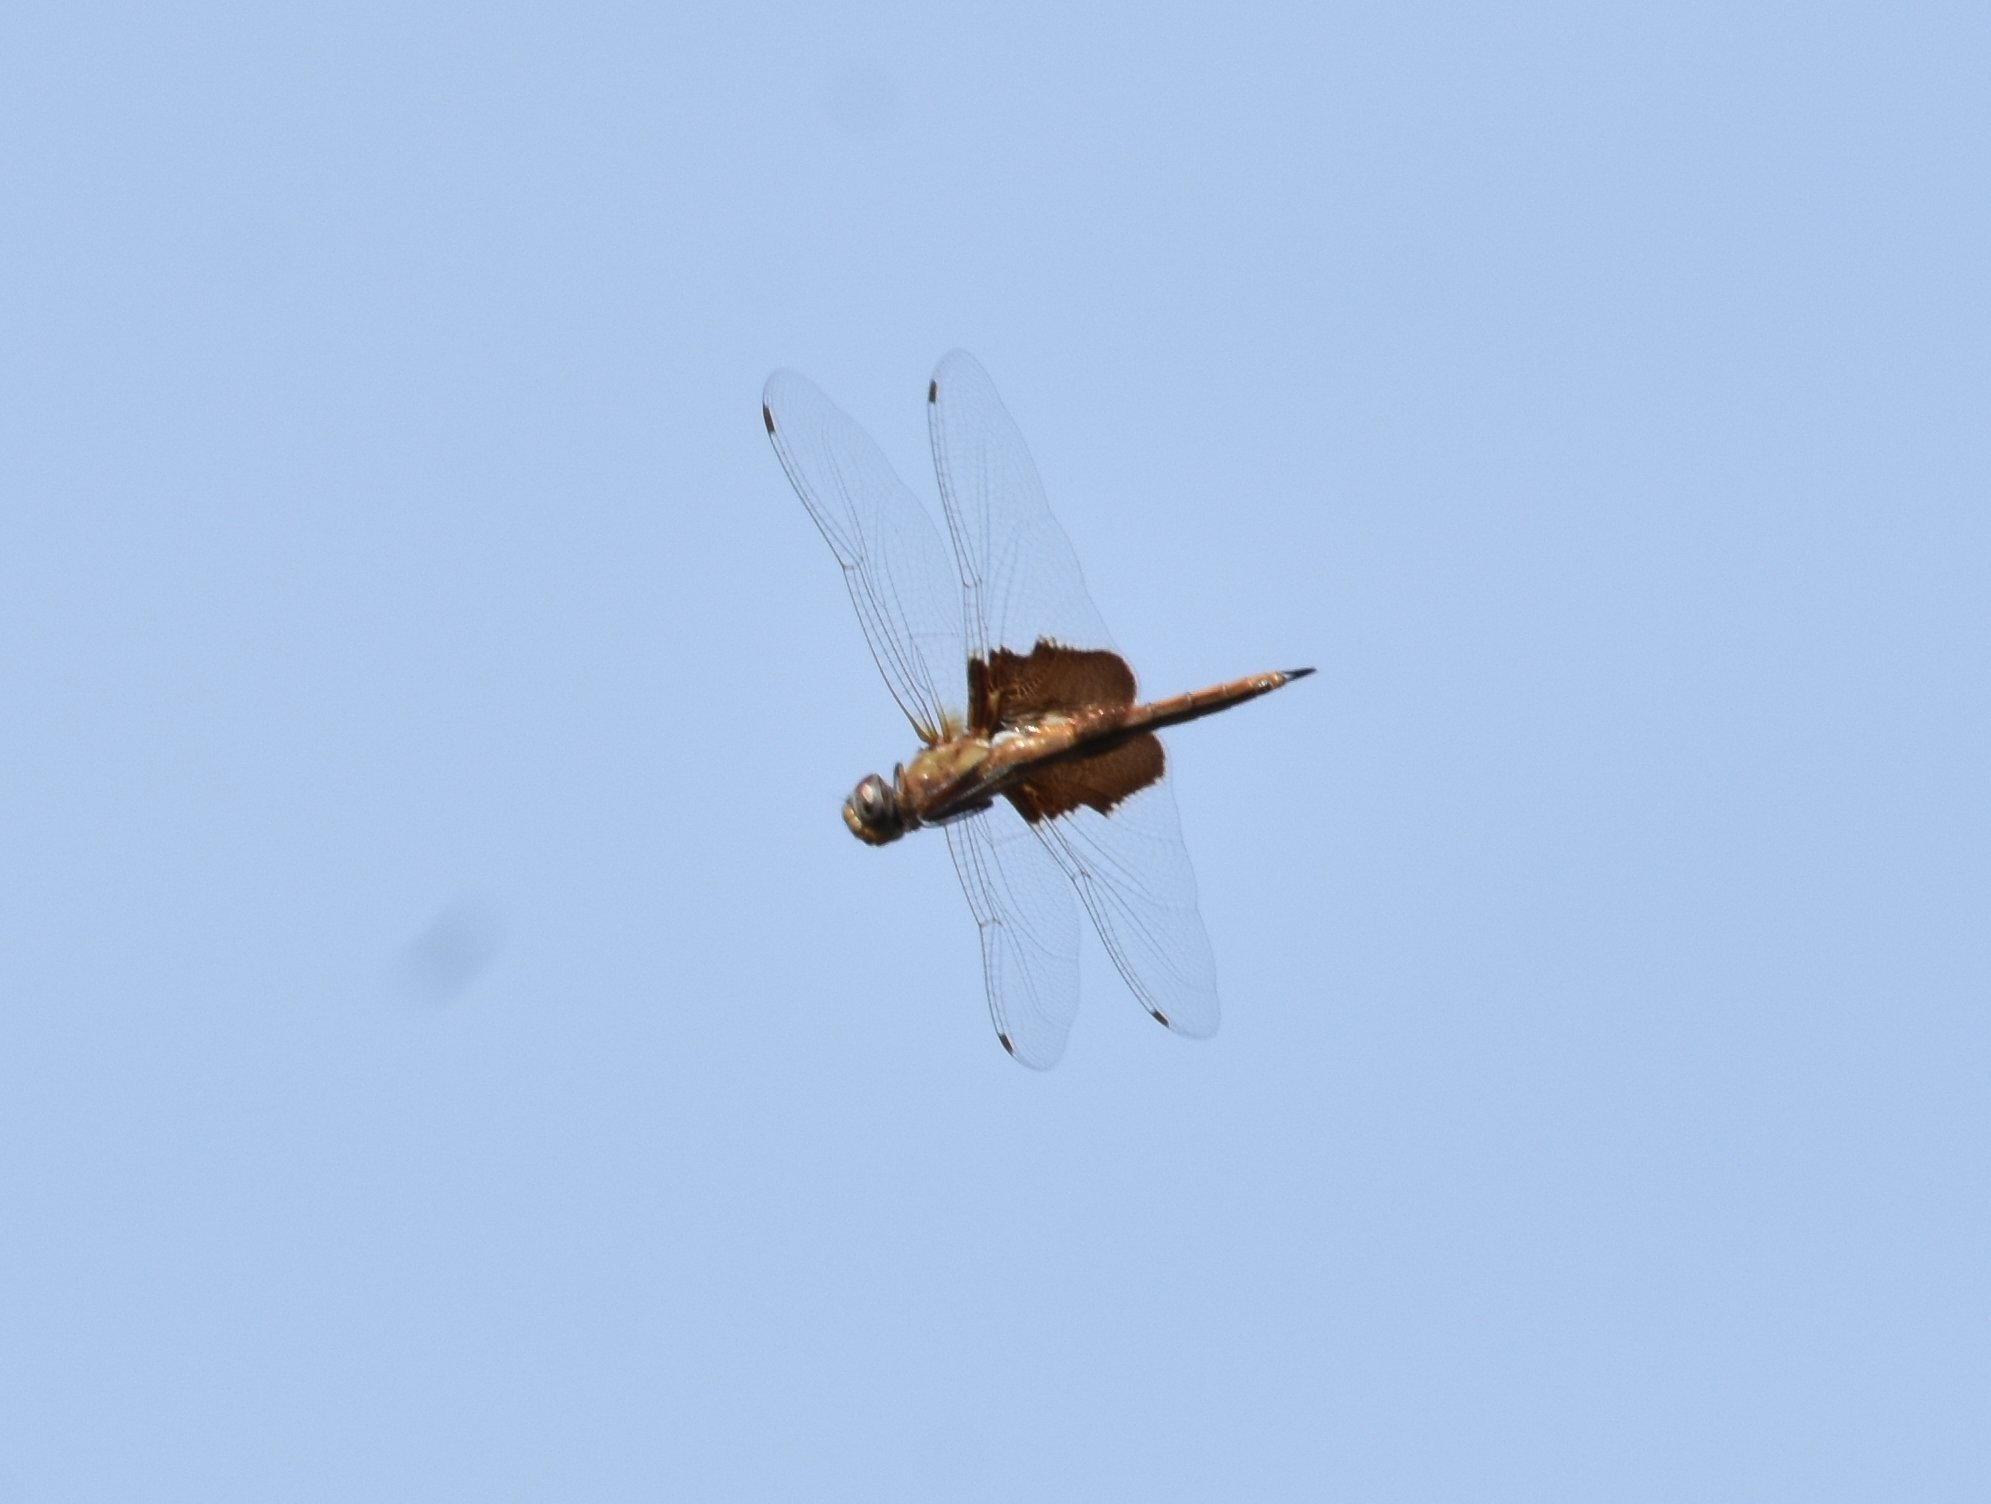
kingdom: Animalia
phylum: Arthropoda
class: Insecta
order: Odonata
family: Libellulidae
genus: Tramea
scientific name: Tramea carolina
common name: Carolina saddlebags
